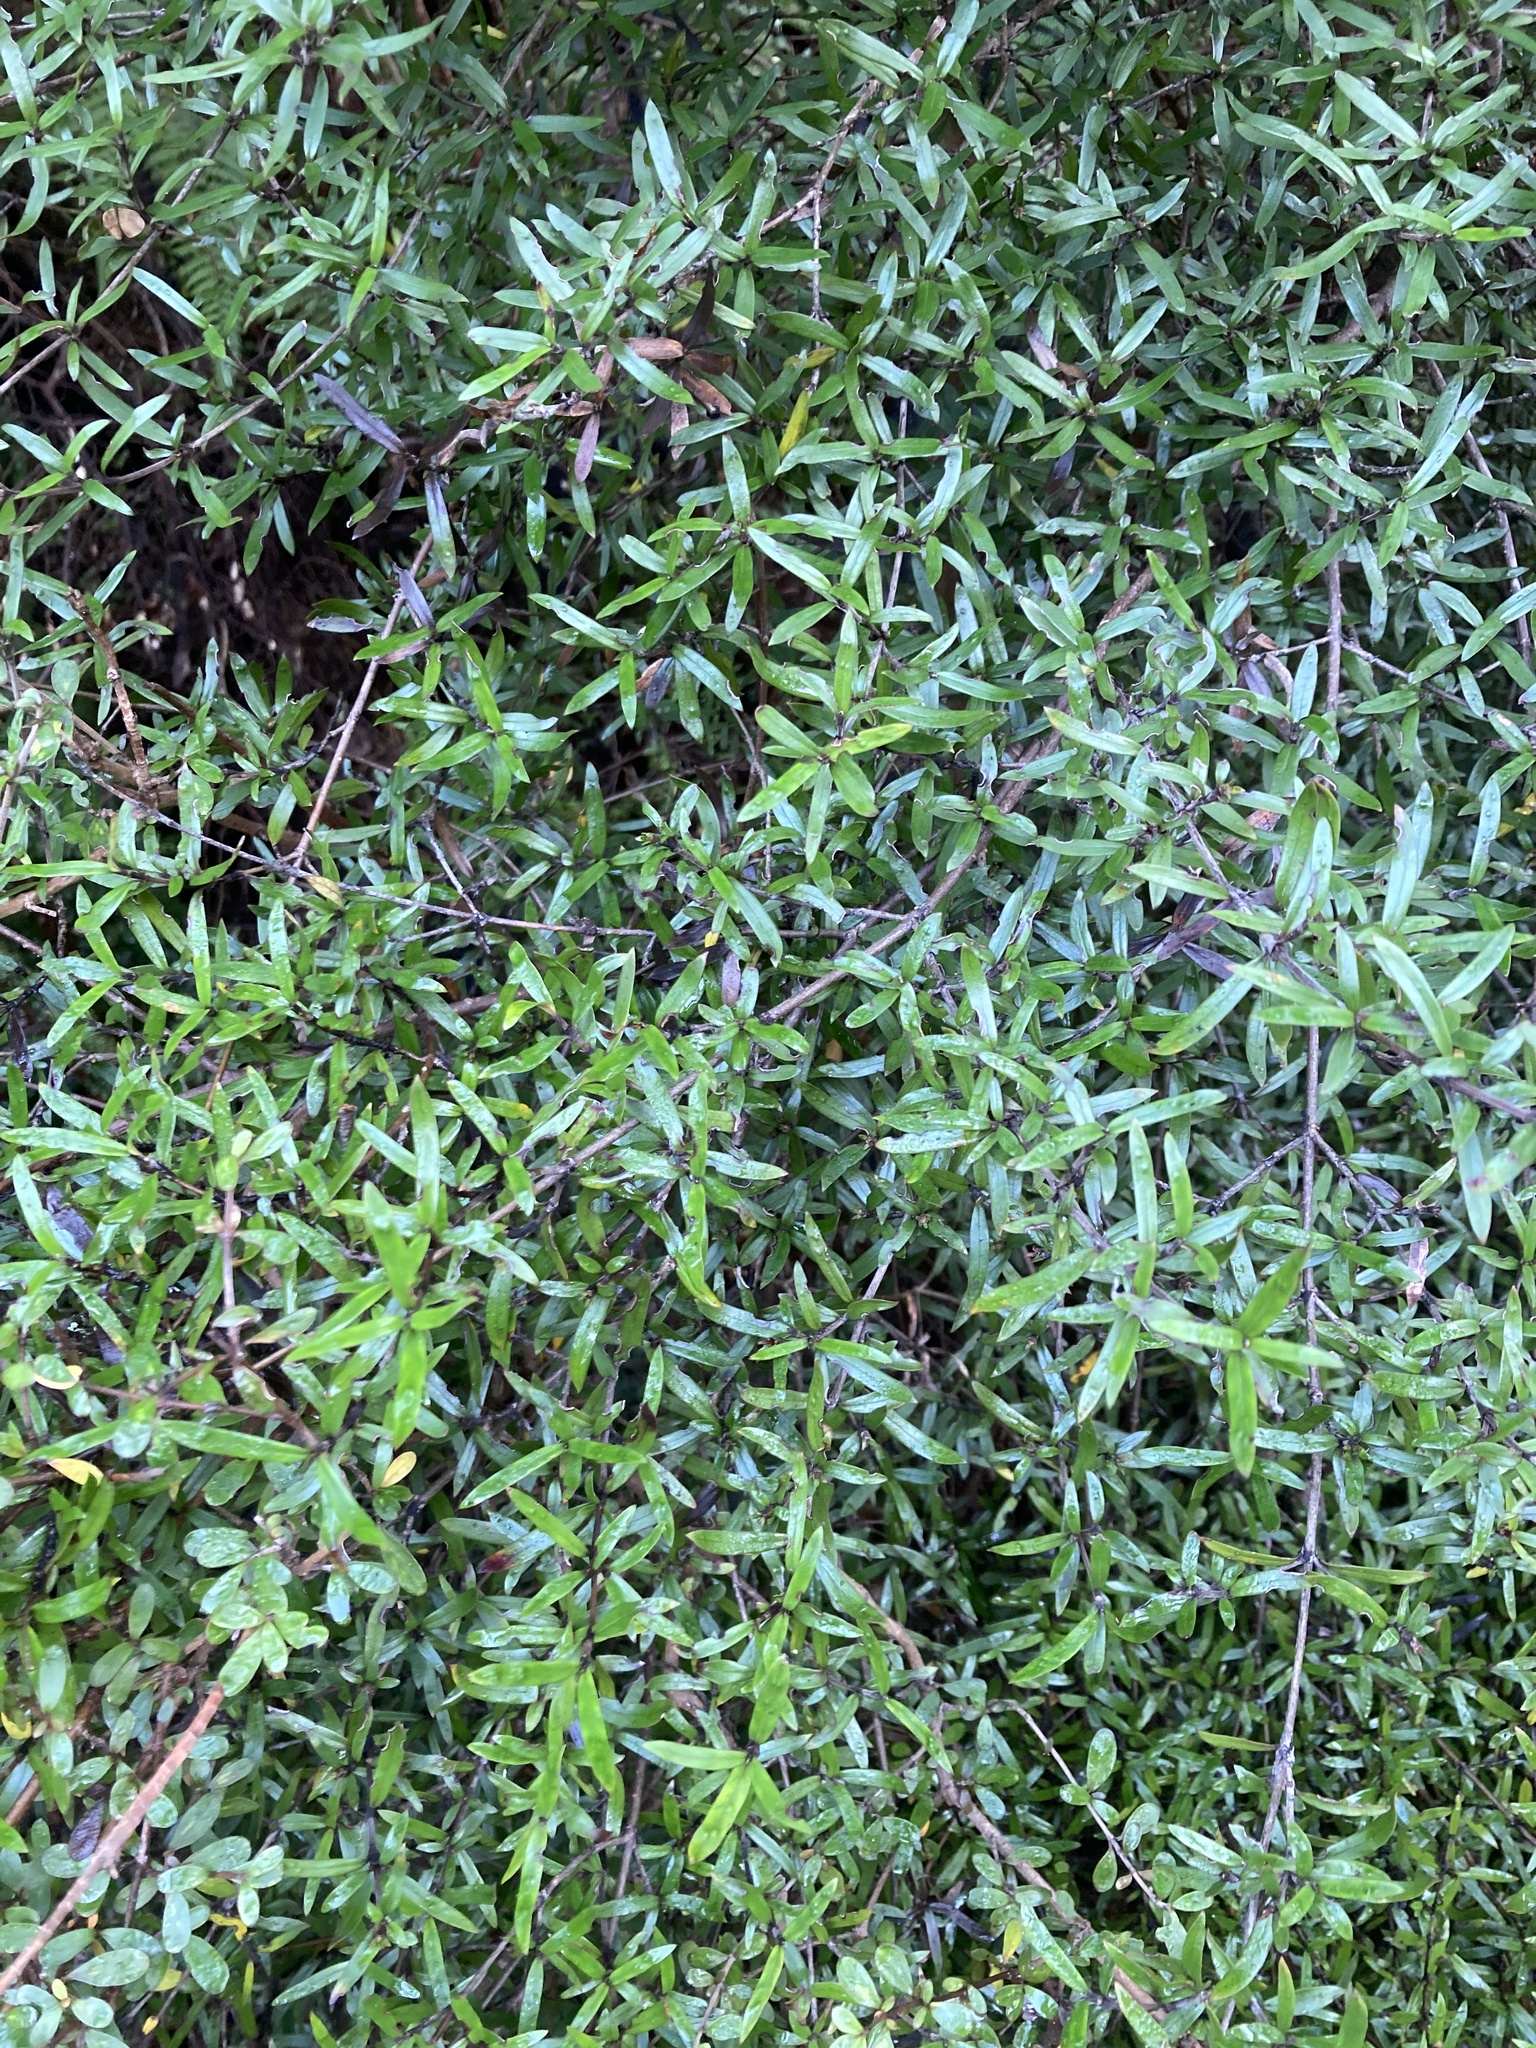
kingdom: Plantae
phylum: Tracheophyta
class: Magnoliopsida
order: Gentianales
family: Rubiaceae
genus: Coprosma
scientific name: Coprosma linariifolia
